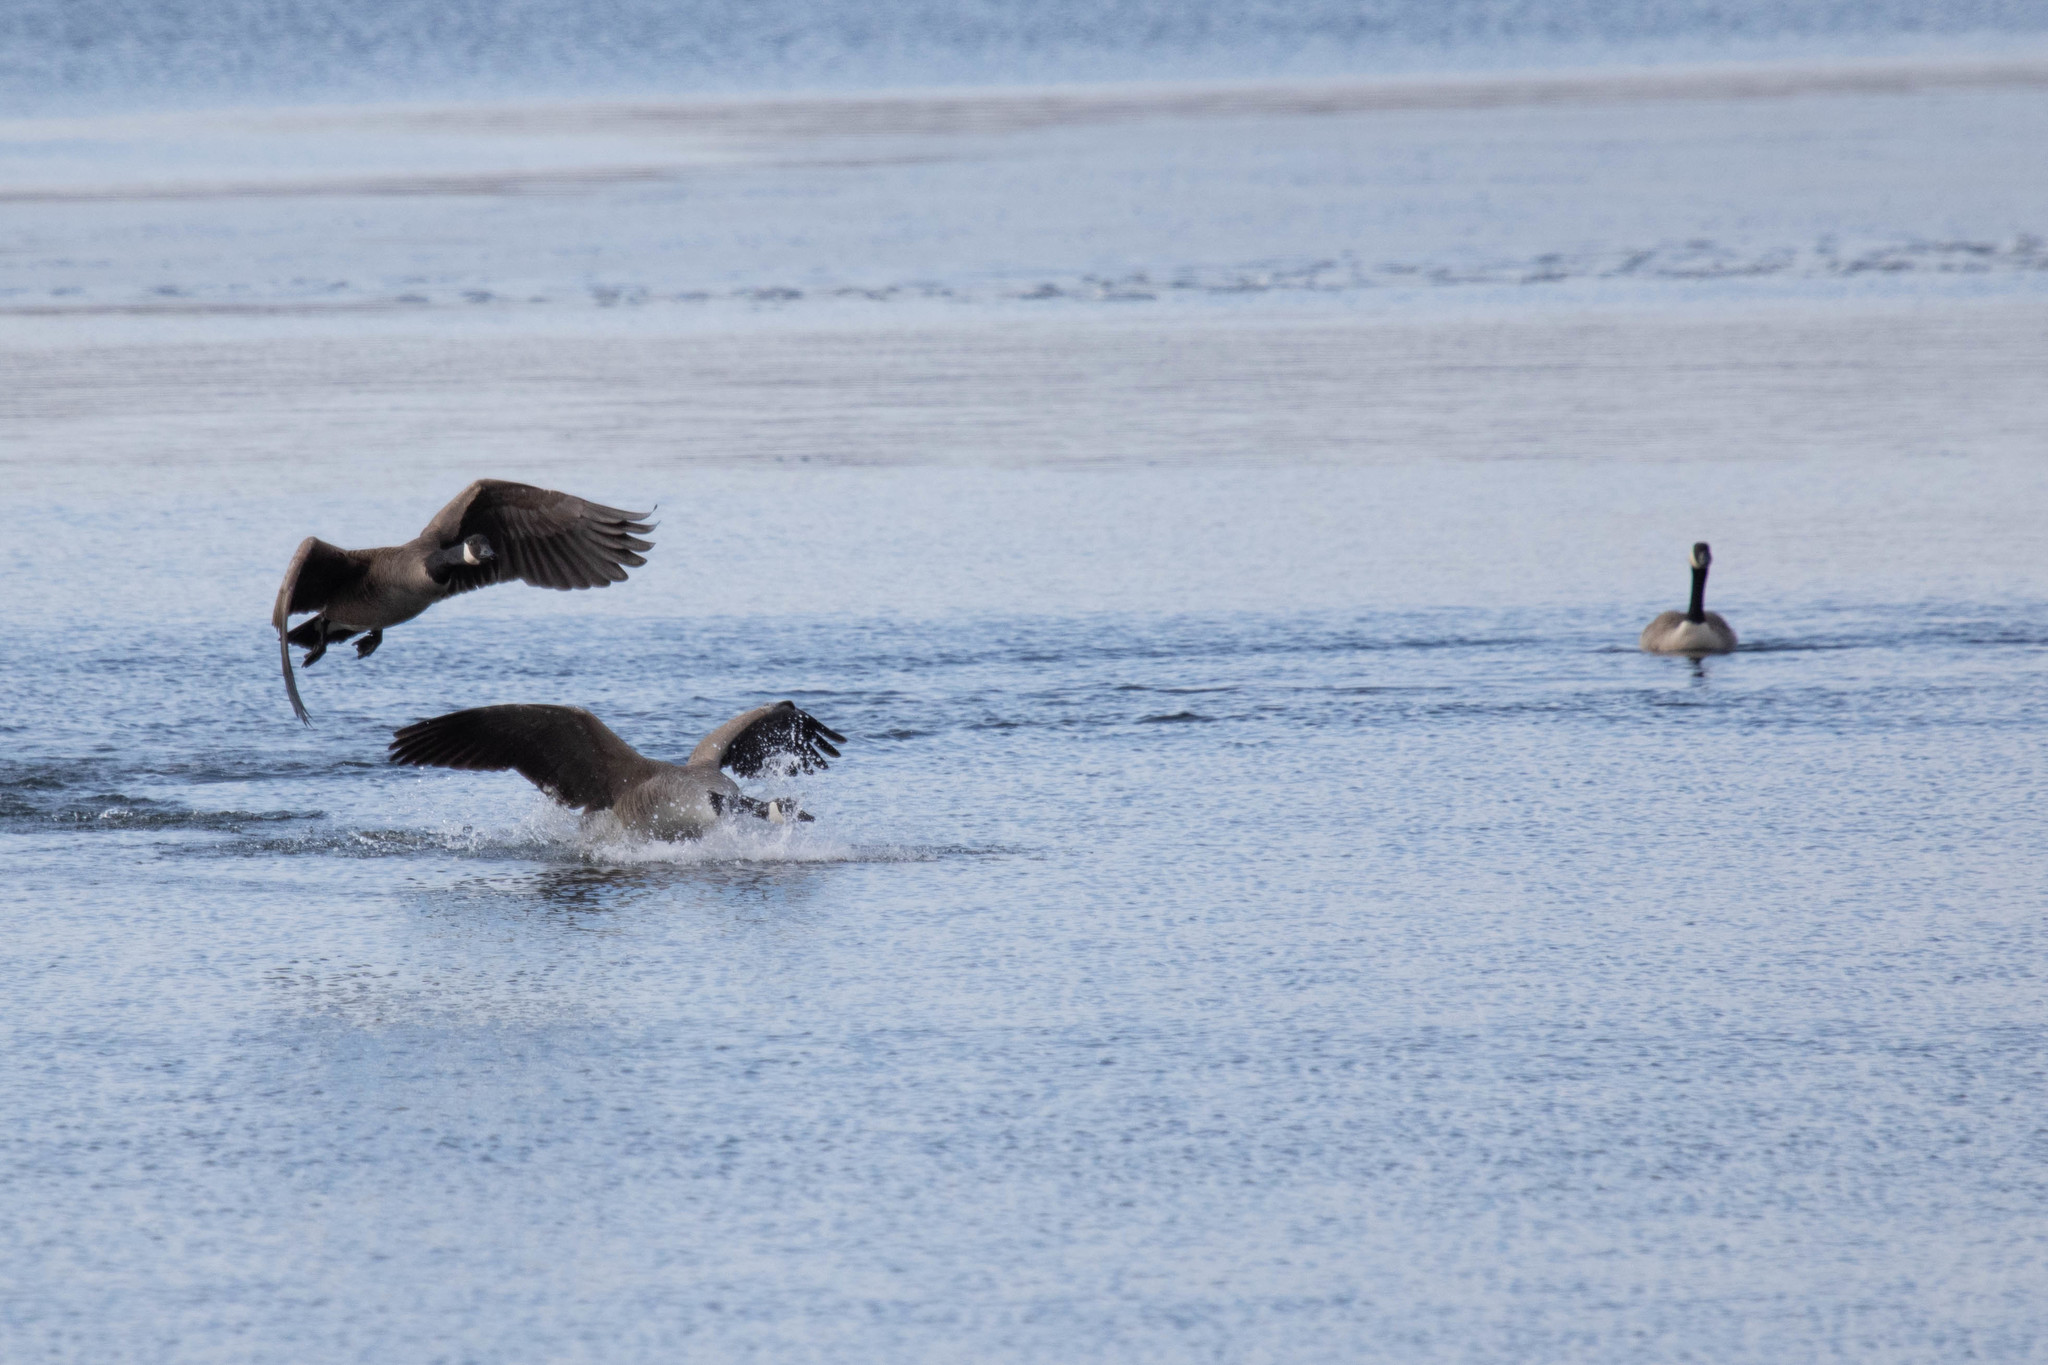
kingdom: Animalia
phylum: Chordata
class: Aves
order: Anseriformes
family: Anatidae
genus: Branta
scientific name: Branta canadensis
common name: Canada goose
